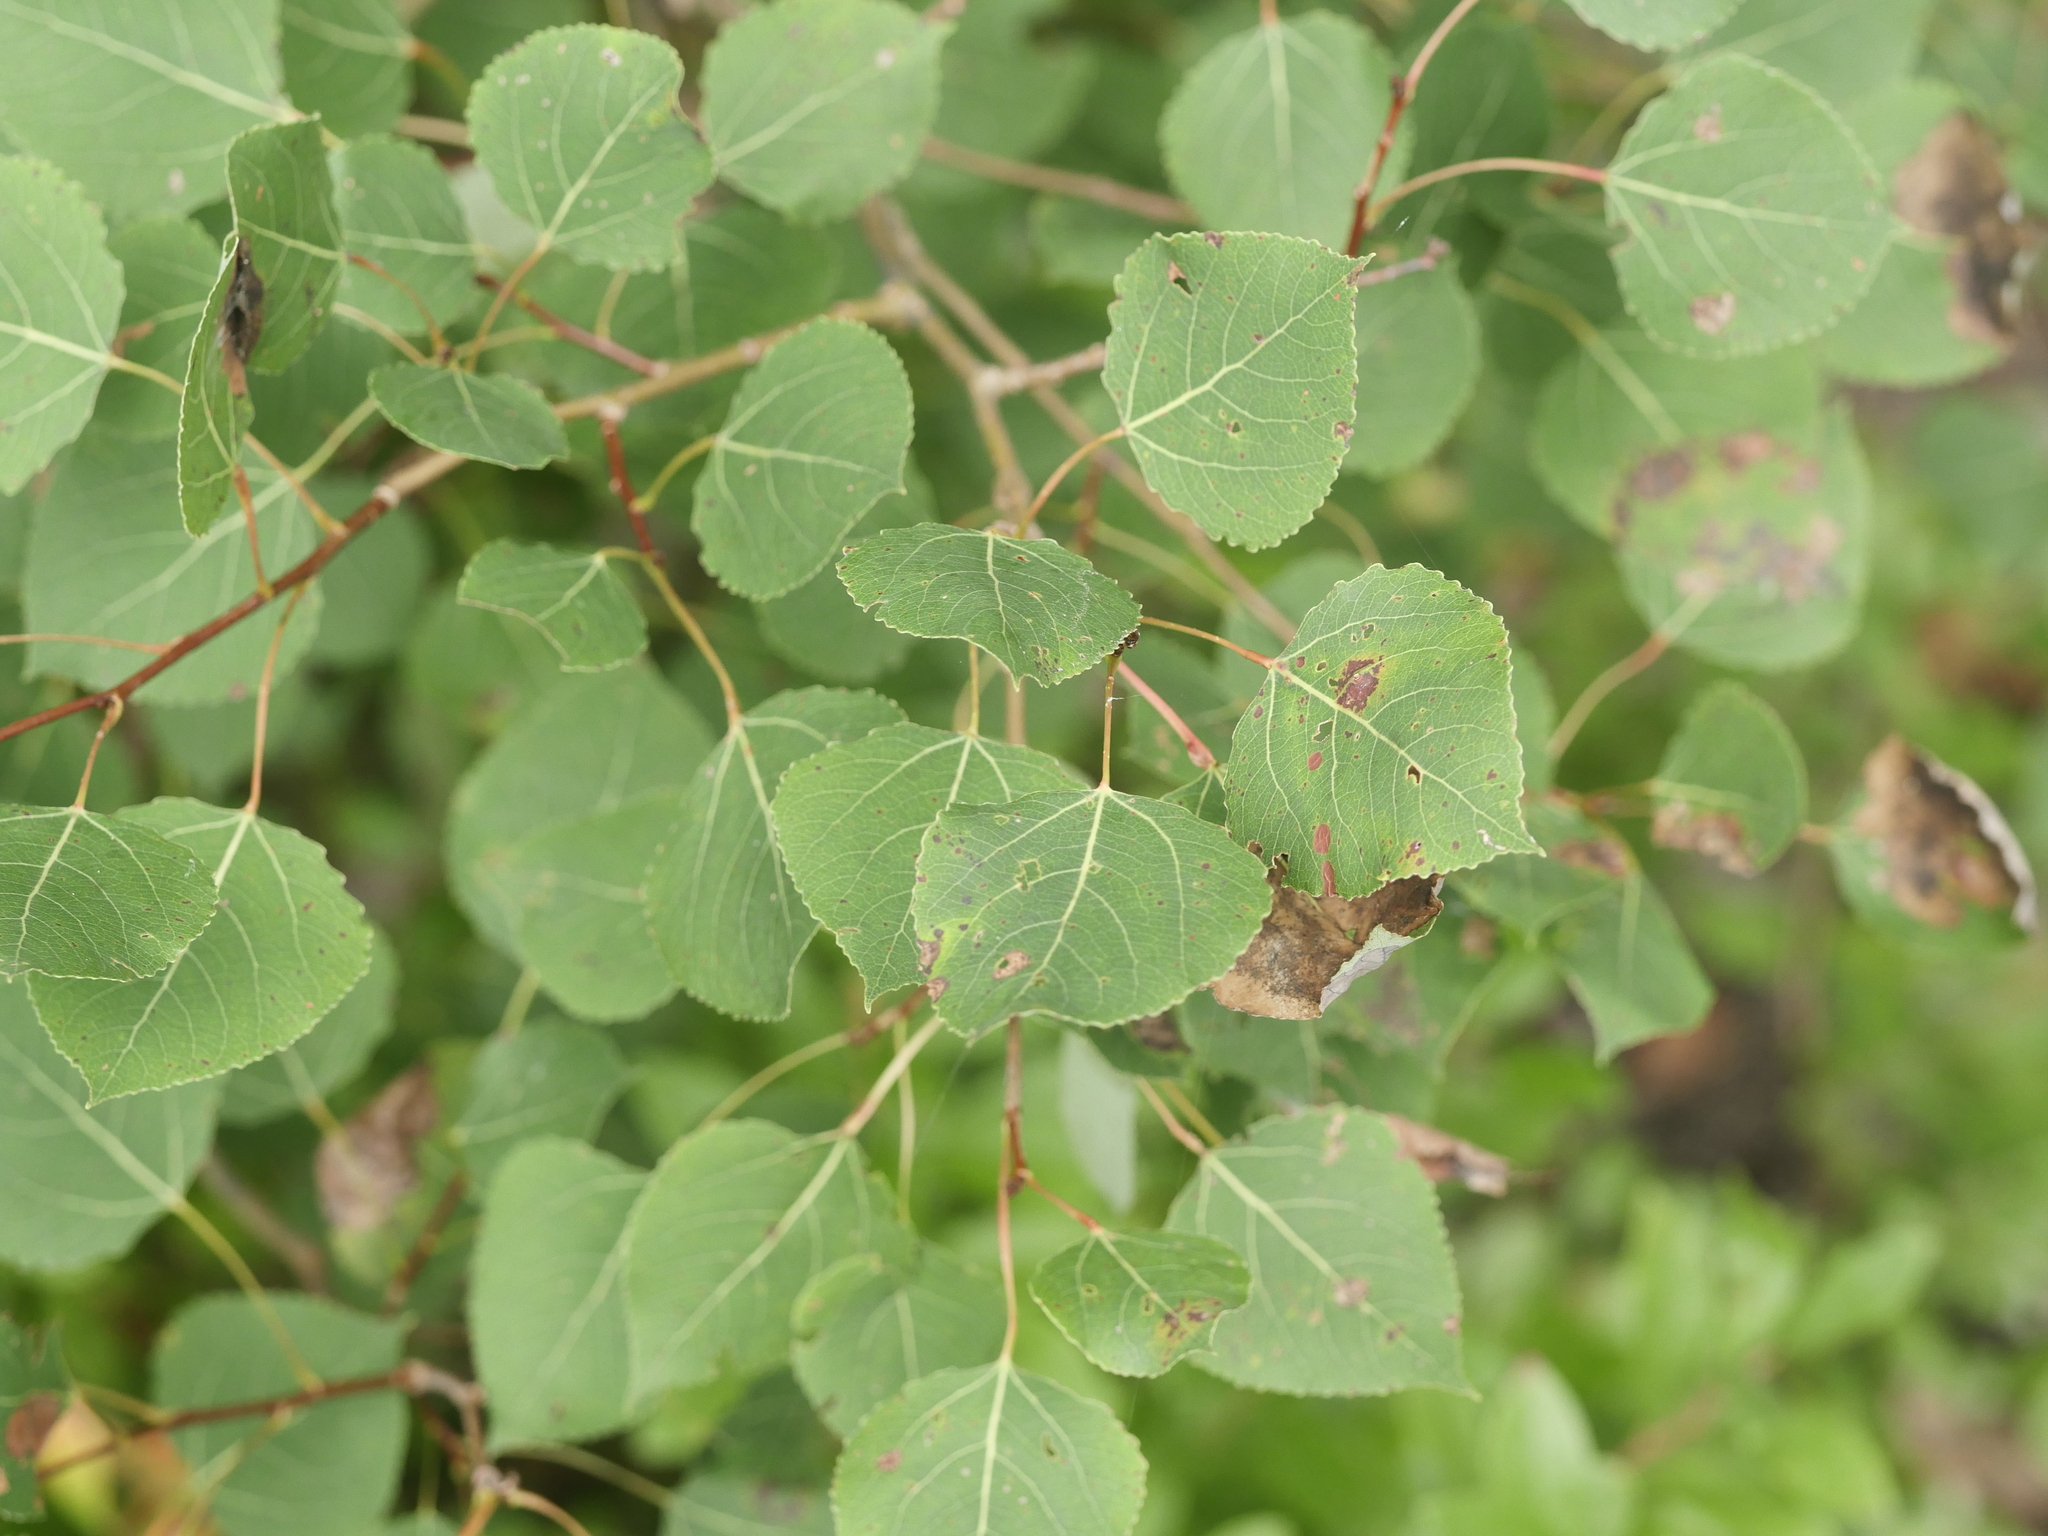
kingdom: Plantae
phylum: Tracheophyta
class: Magnoliopsida
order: Malpighiales
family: Salicaceae
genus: Populus
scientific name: Populus tremuloides
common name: Quaking aspen
